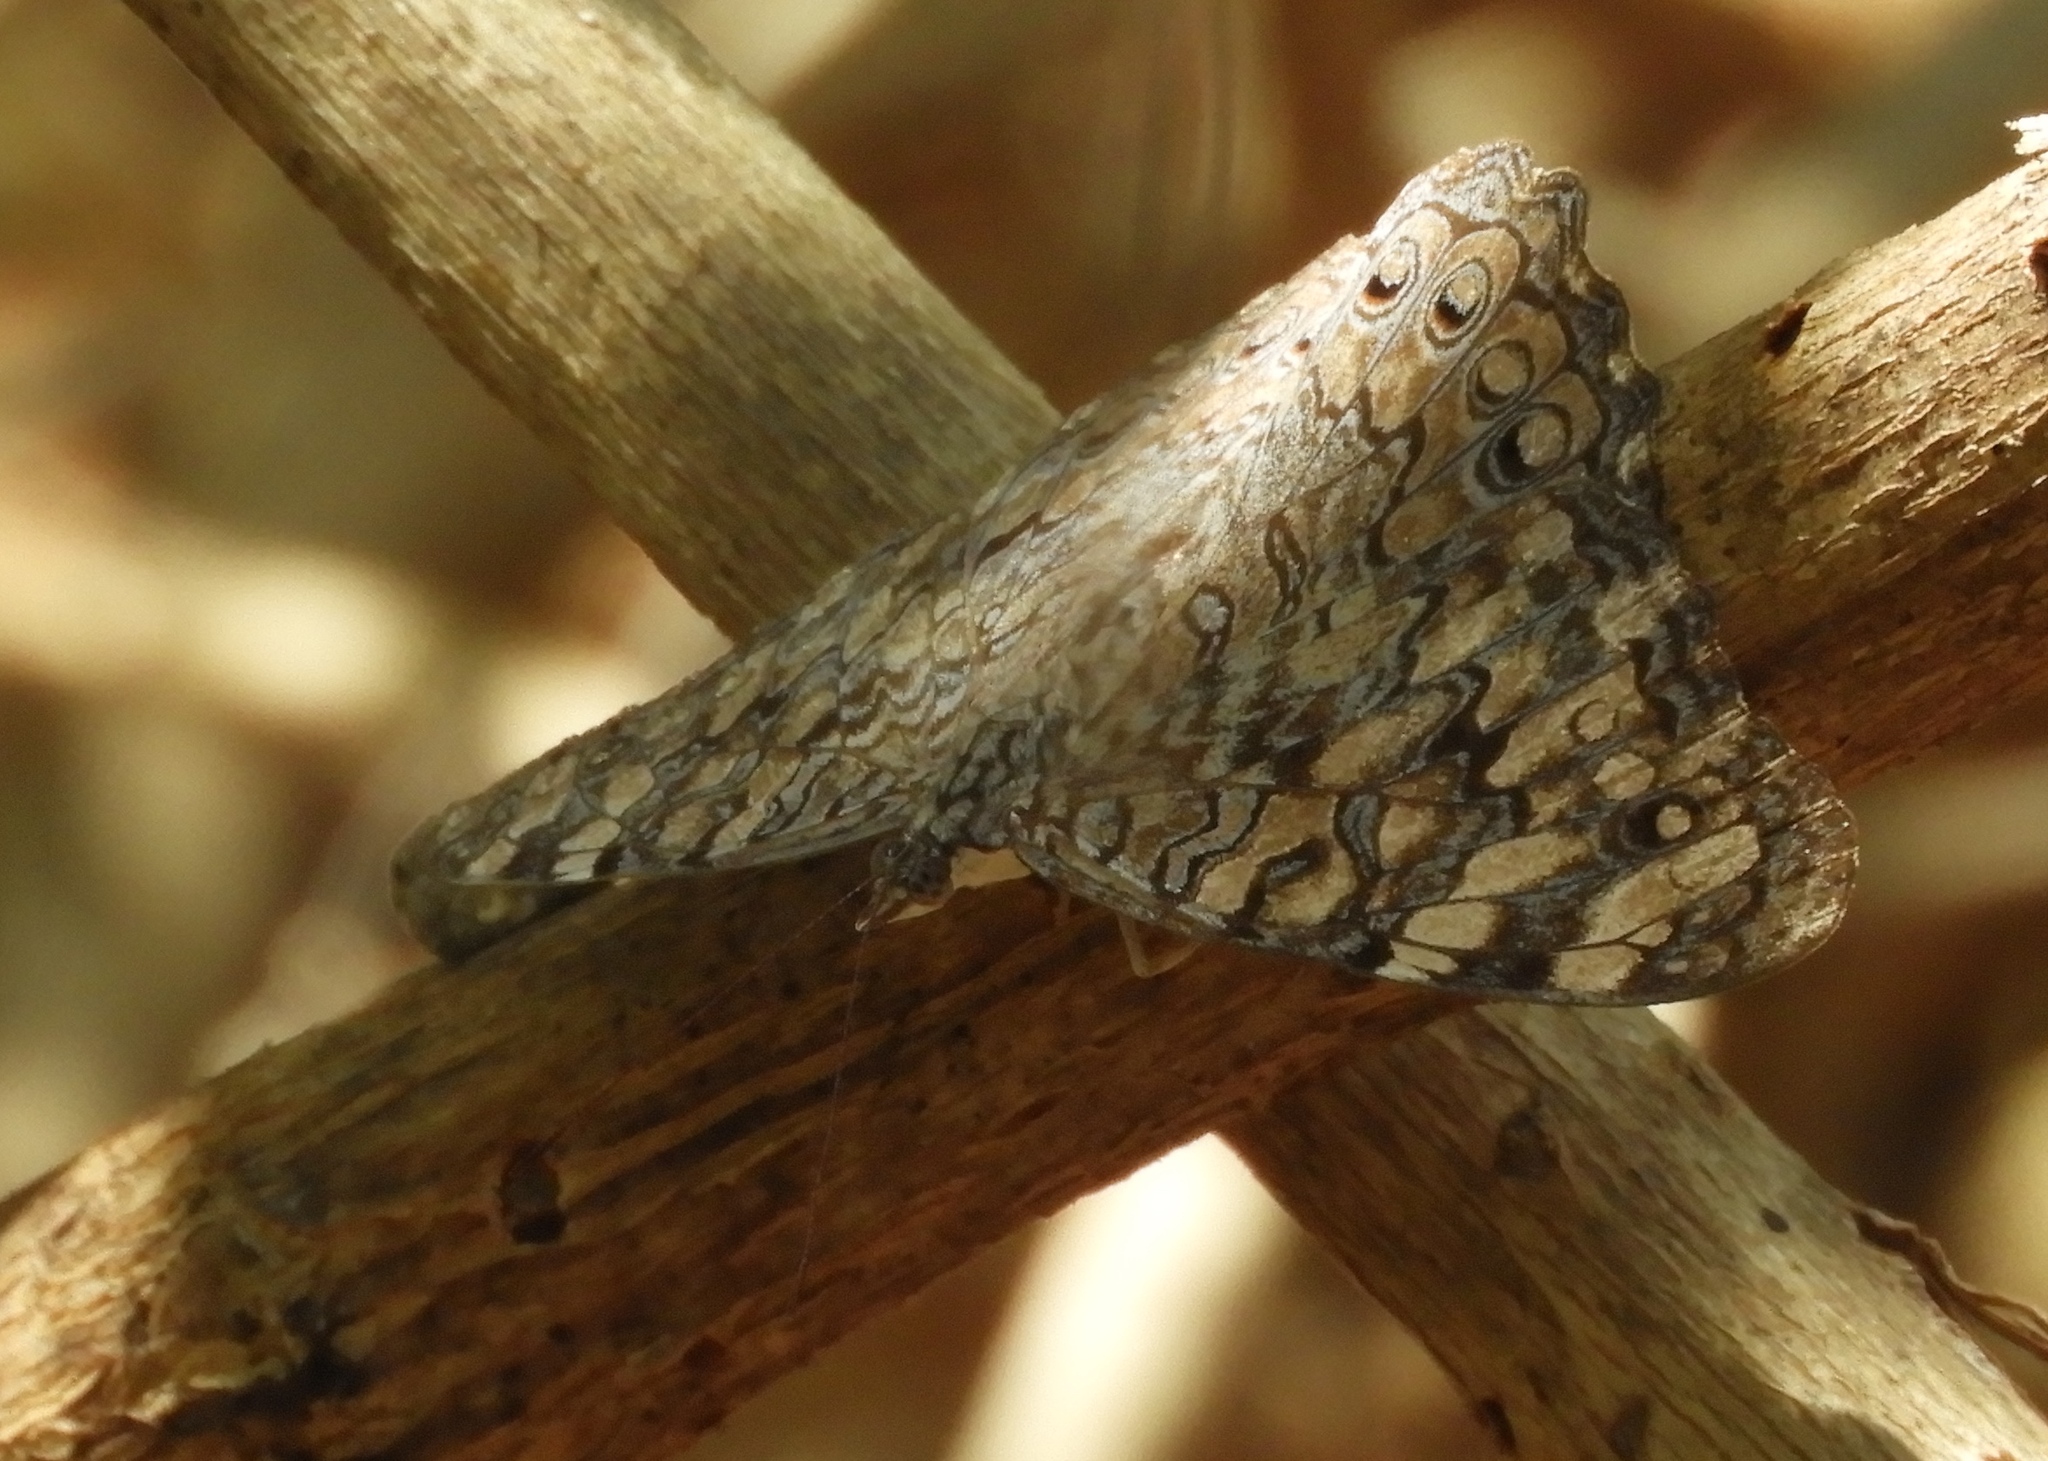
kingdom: Animalia
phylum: Arthropoda
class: Insecta
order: Lepidoptera
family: Nymphalidae
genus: Hamadryas
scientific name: Hamadryas februa
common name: Gray cracker
